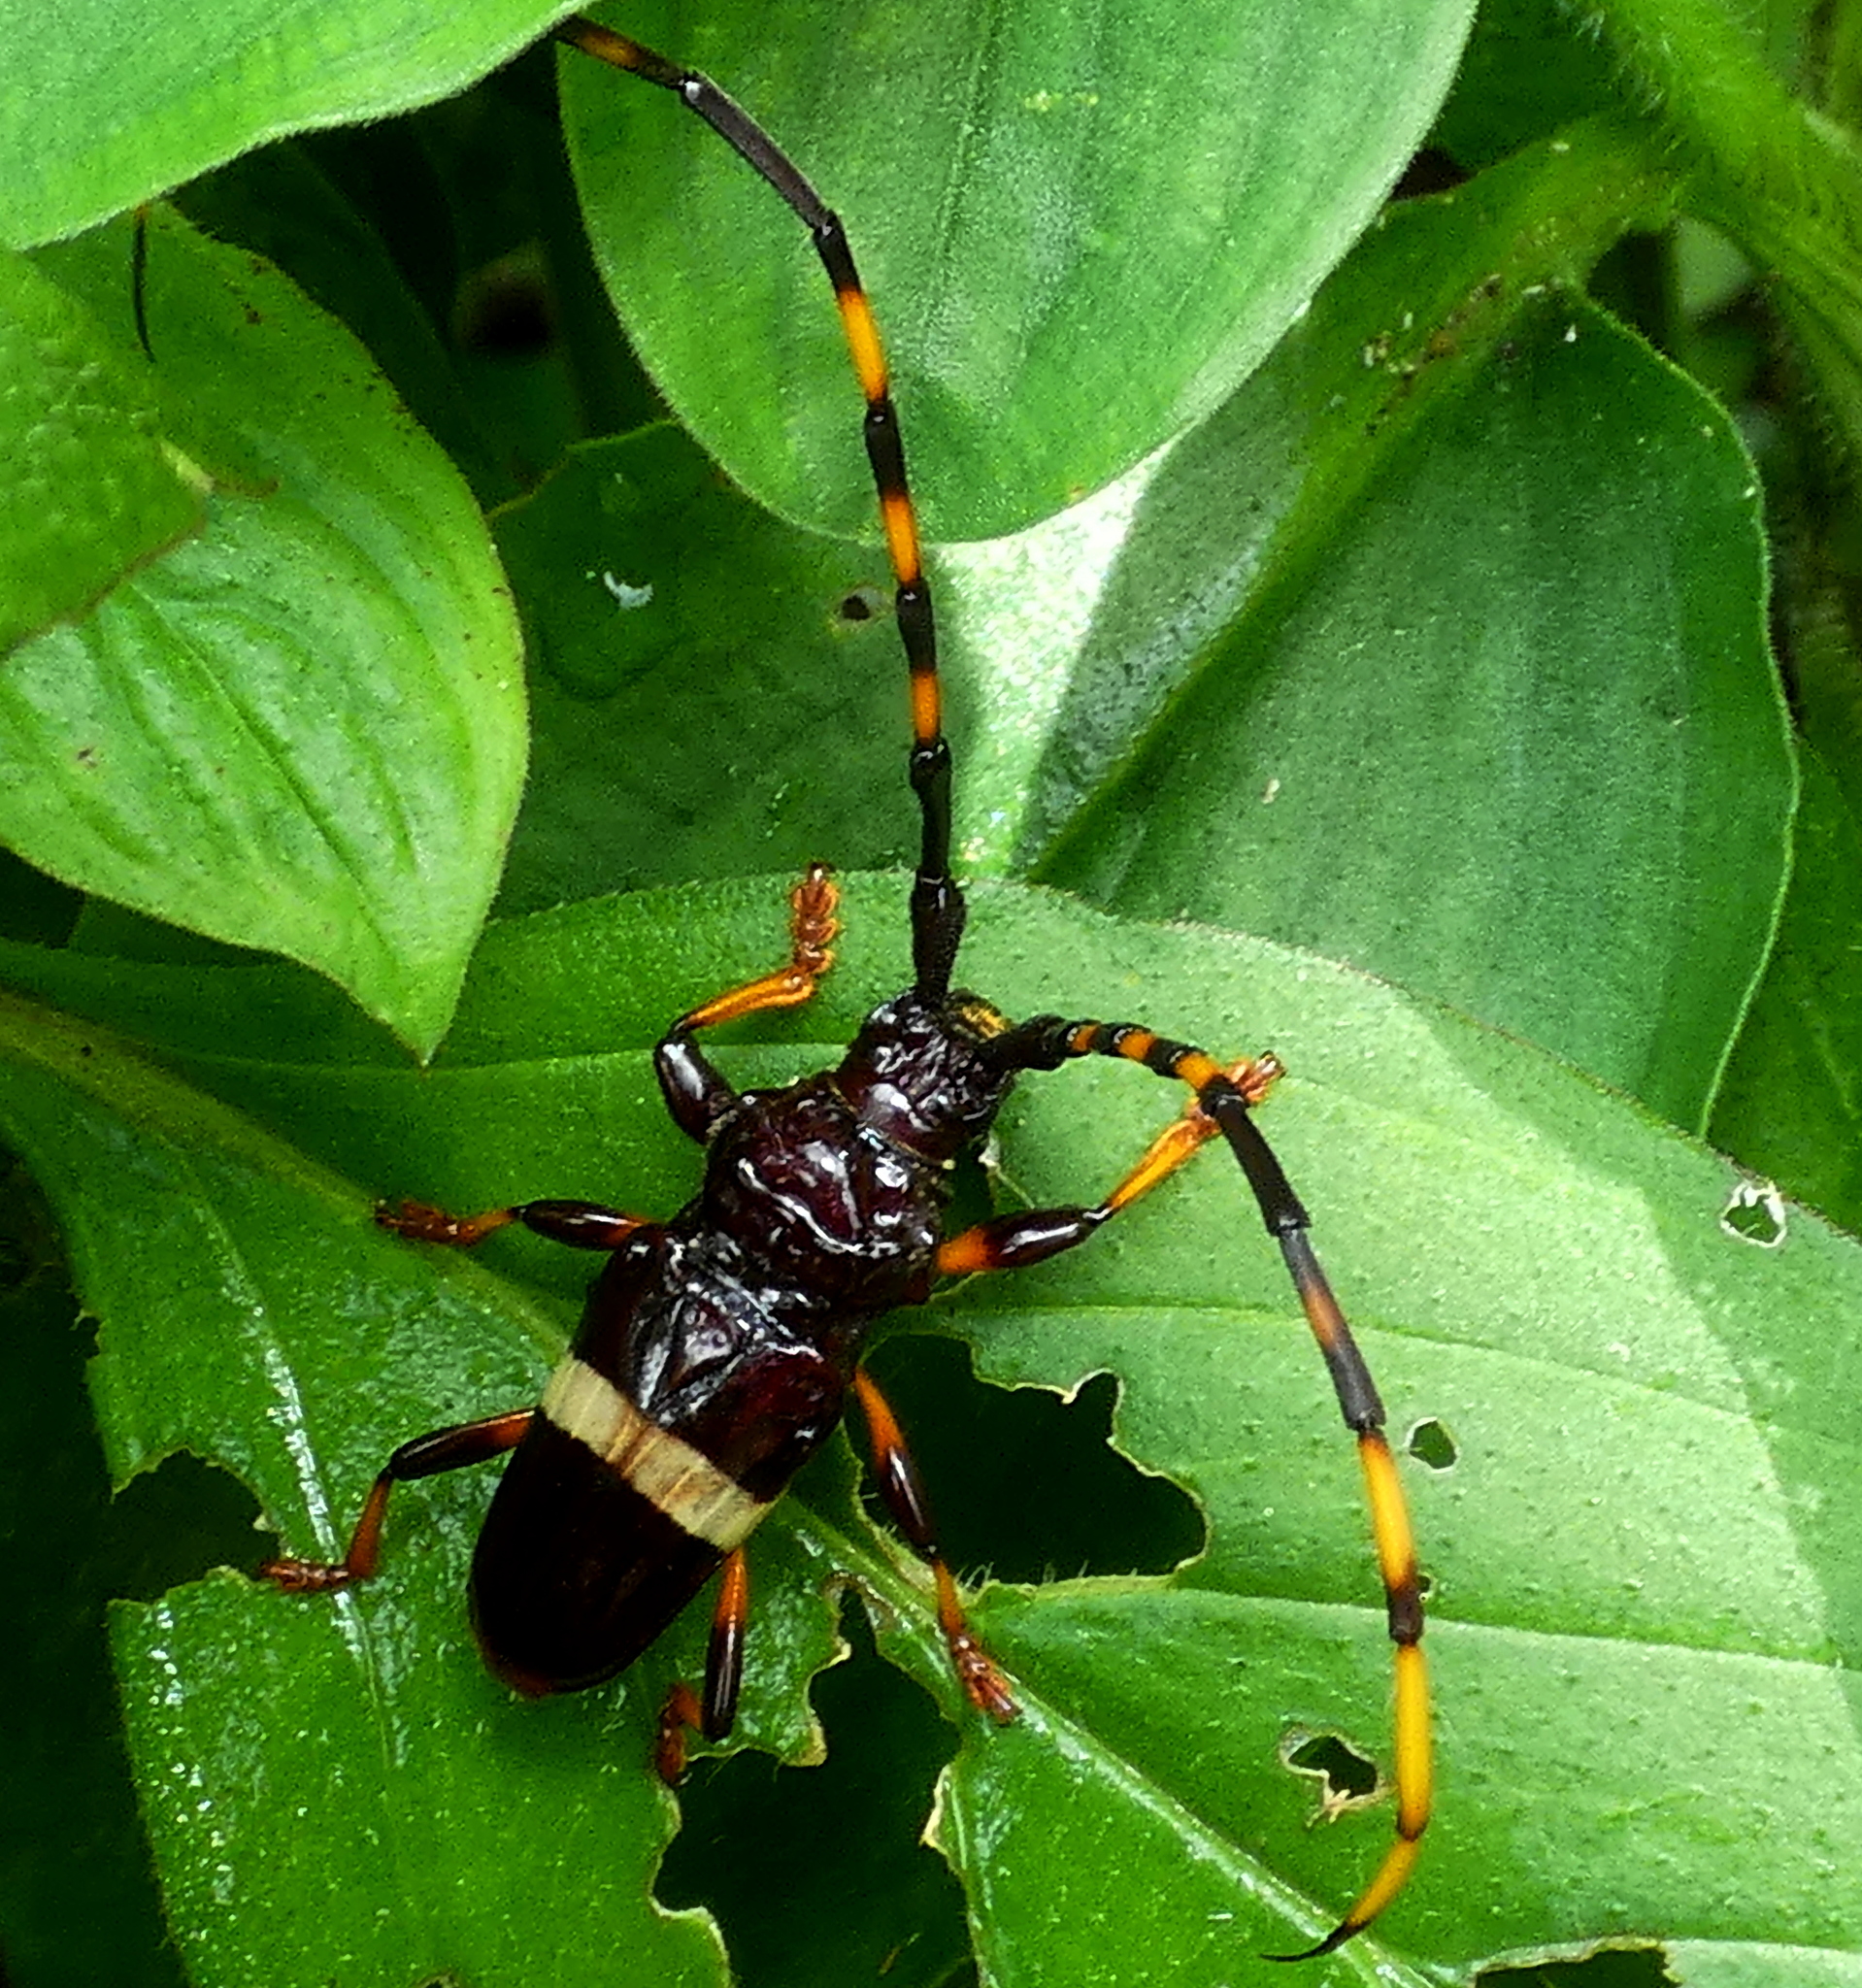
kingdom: Animalia
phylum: Arthropoda
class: Insecta
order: Coleoptera
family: Cerambycidae
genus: Trachyderes
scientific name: Trachyderes succinctus
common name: Mango longhorn
